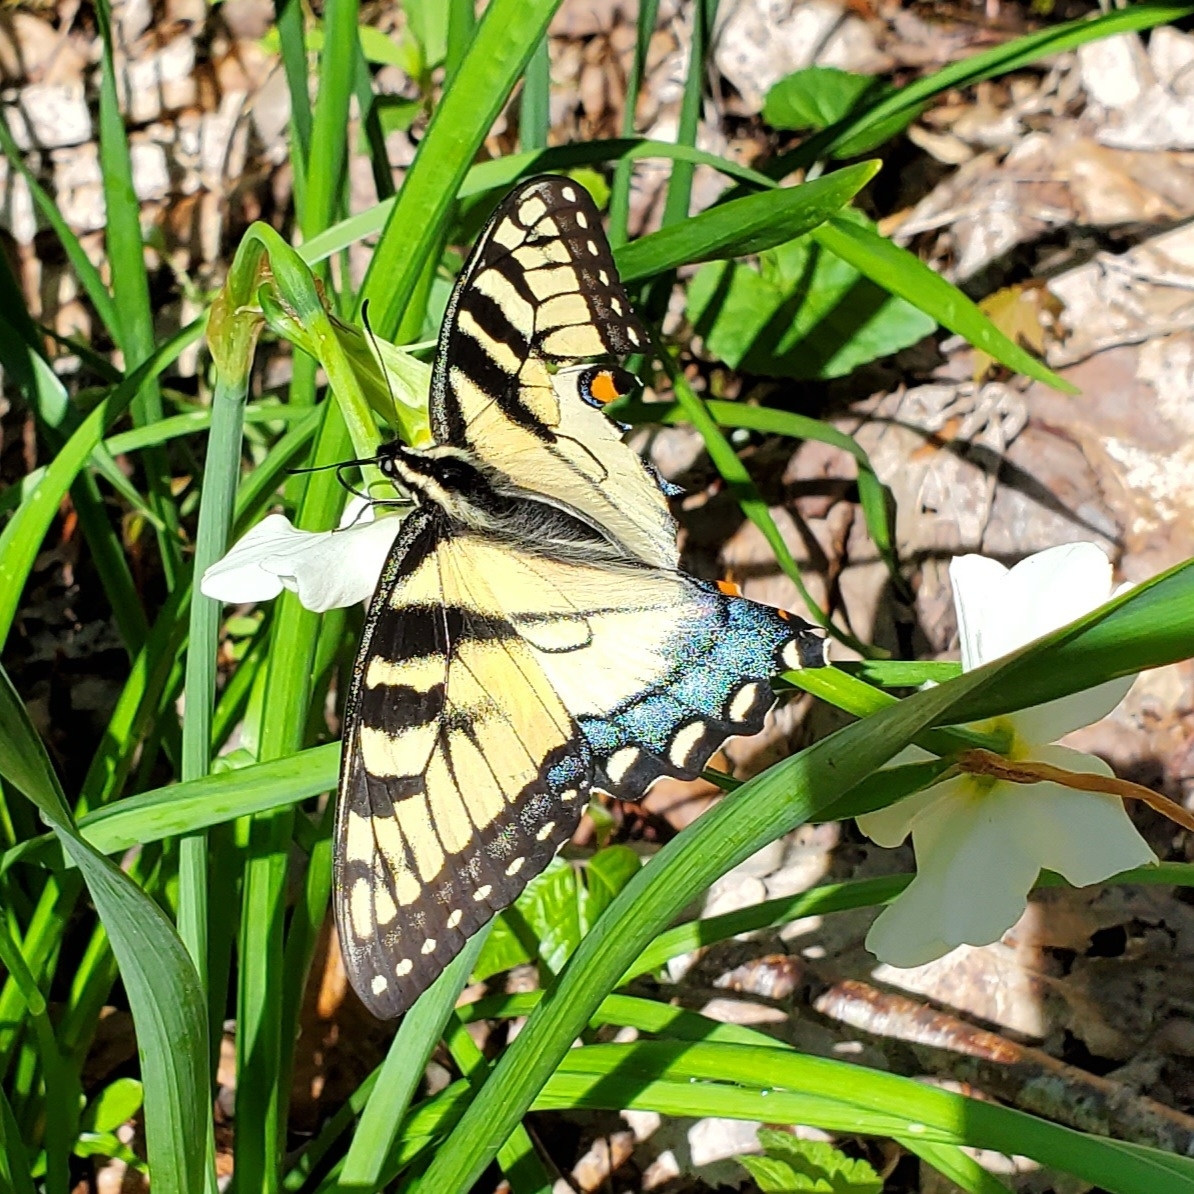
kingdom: Animalia
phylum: Arthropoda
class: Insecta
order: Lepidoptera
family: Papilionidae
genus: Papilio
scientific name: Papilio glaucus
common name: Tiger swallowtail
